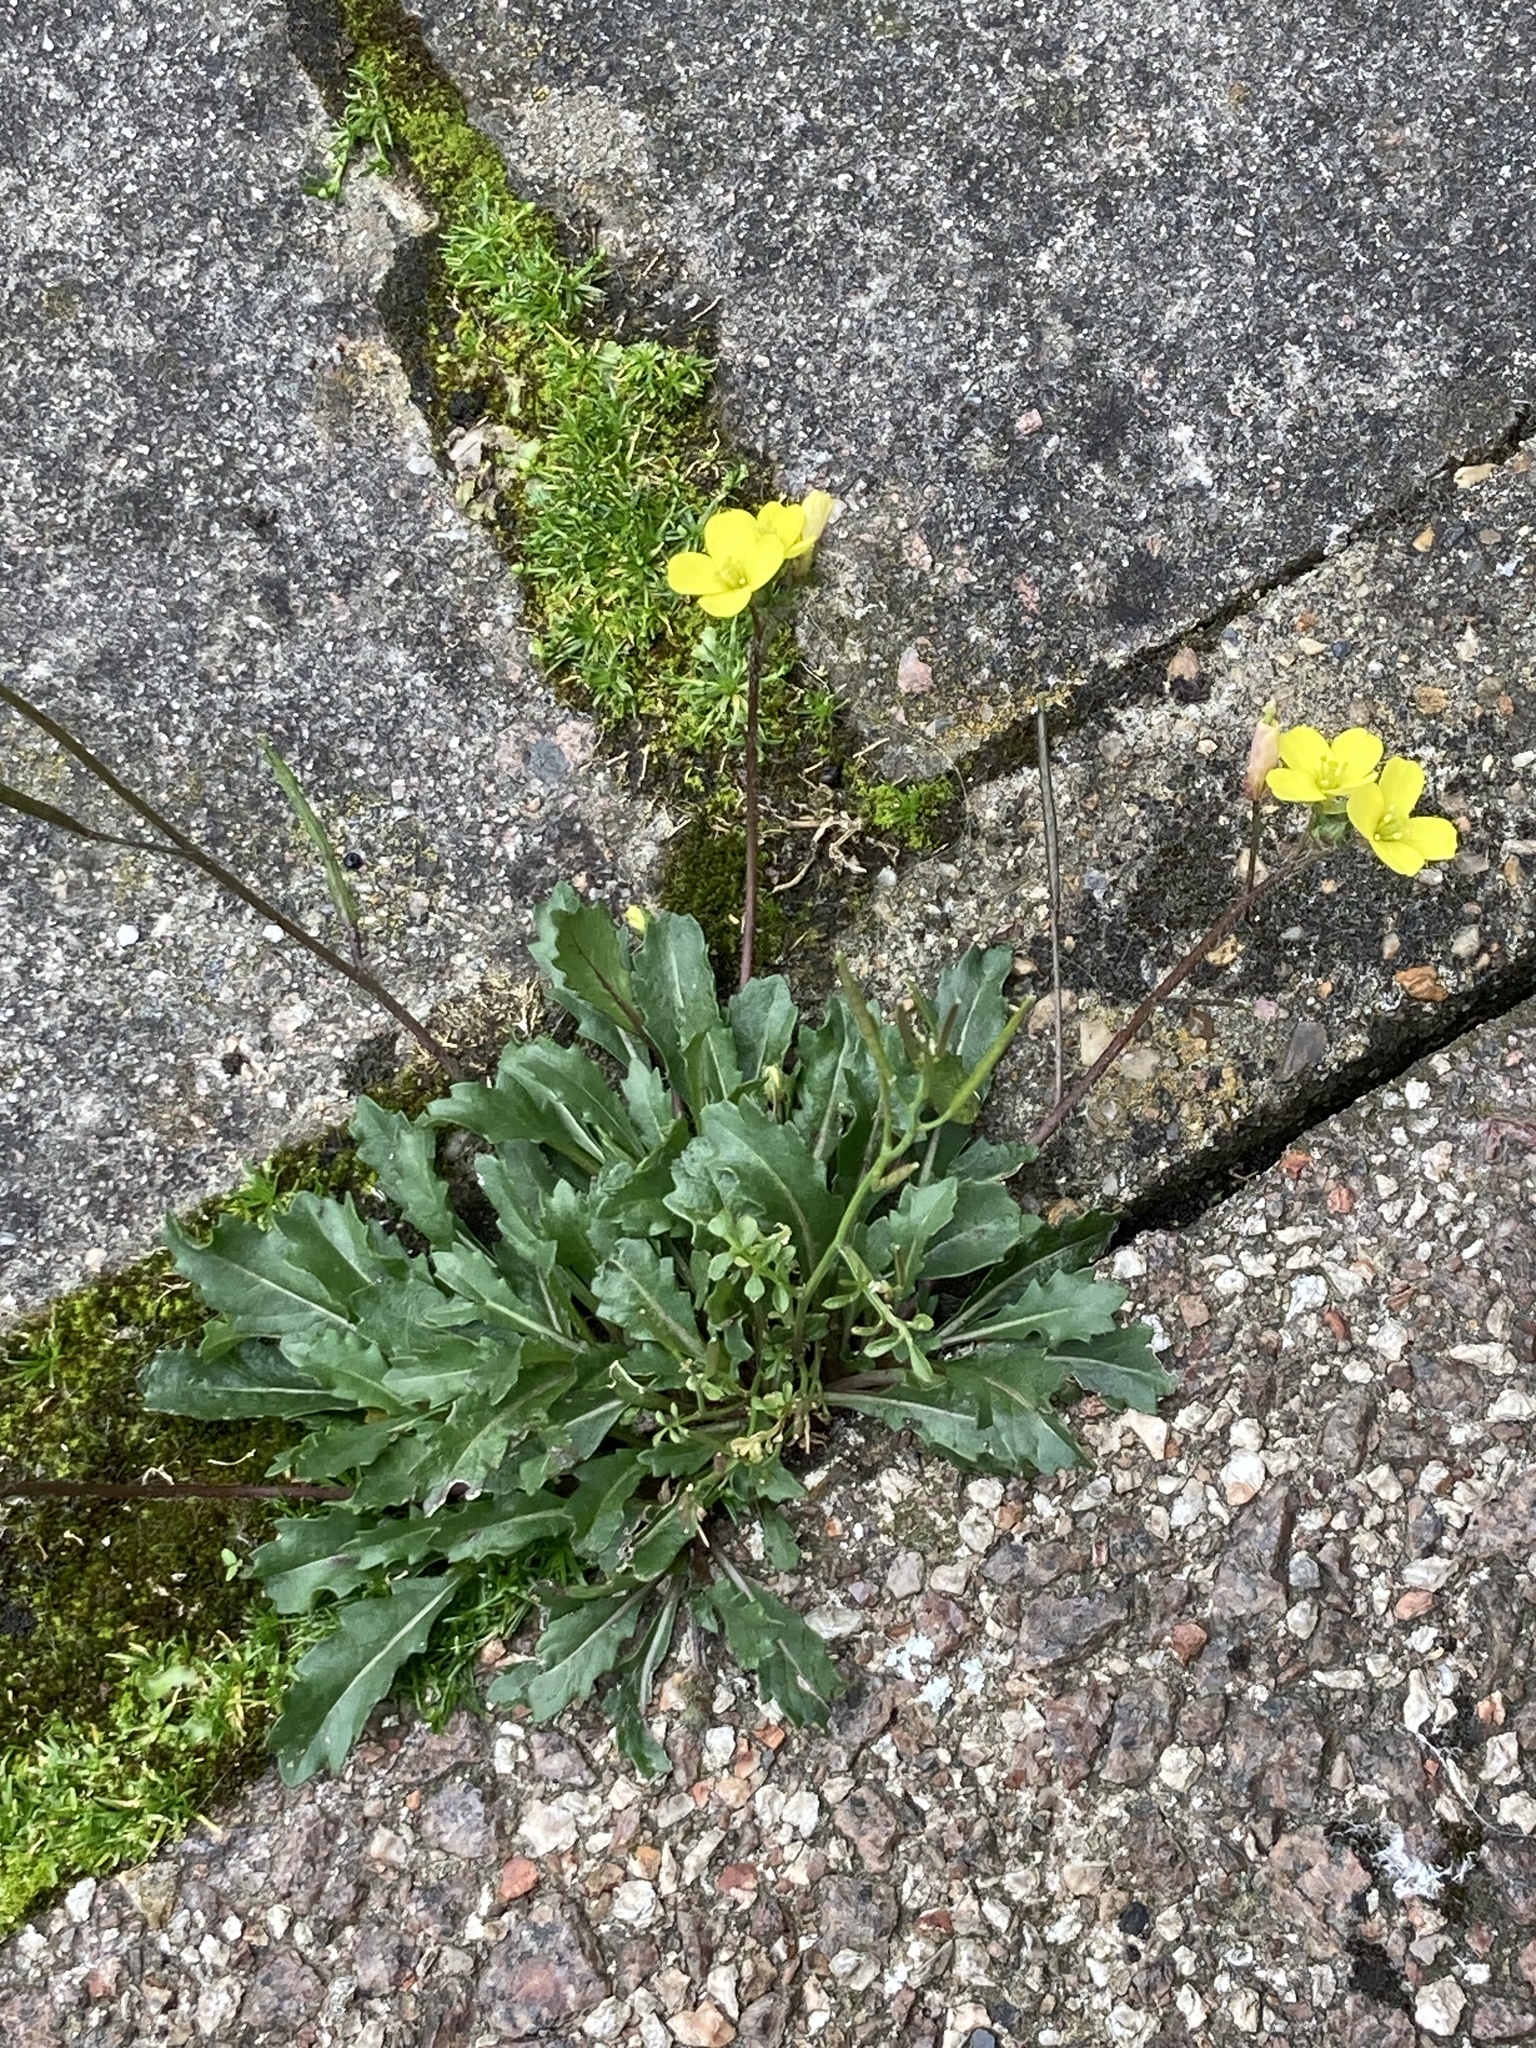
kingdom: Plantae
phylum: Tracheophyta
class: Magnoliopsida
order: Brassicales
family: Brassicaceae
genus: Diplotaxis
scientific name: Diplotaxis muralis
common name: Annual wall-rocket
